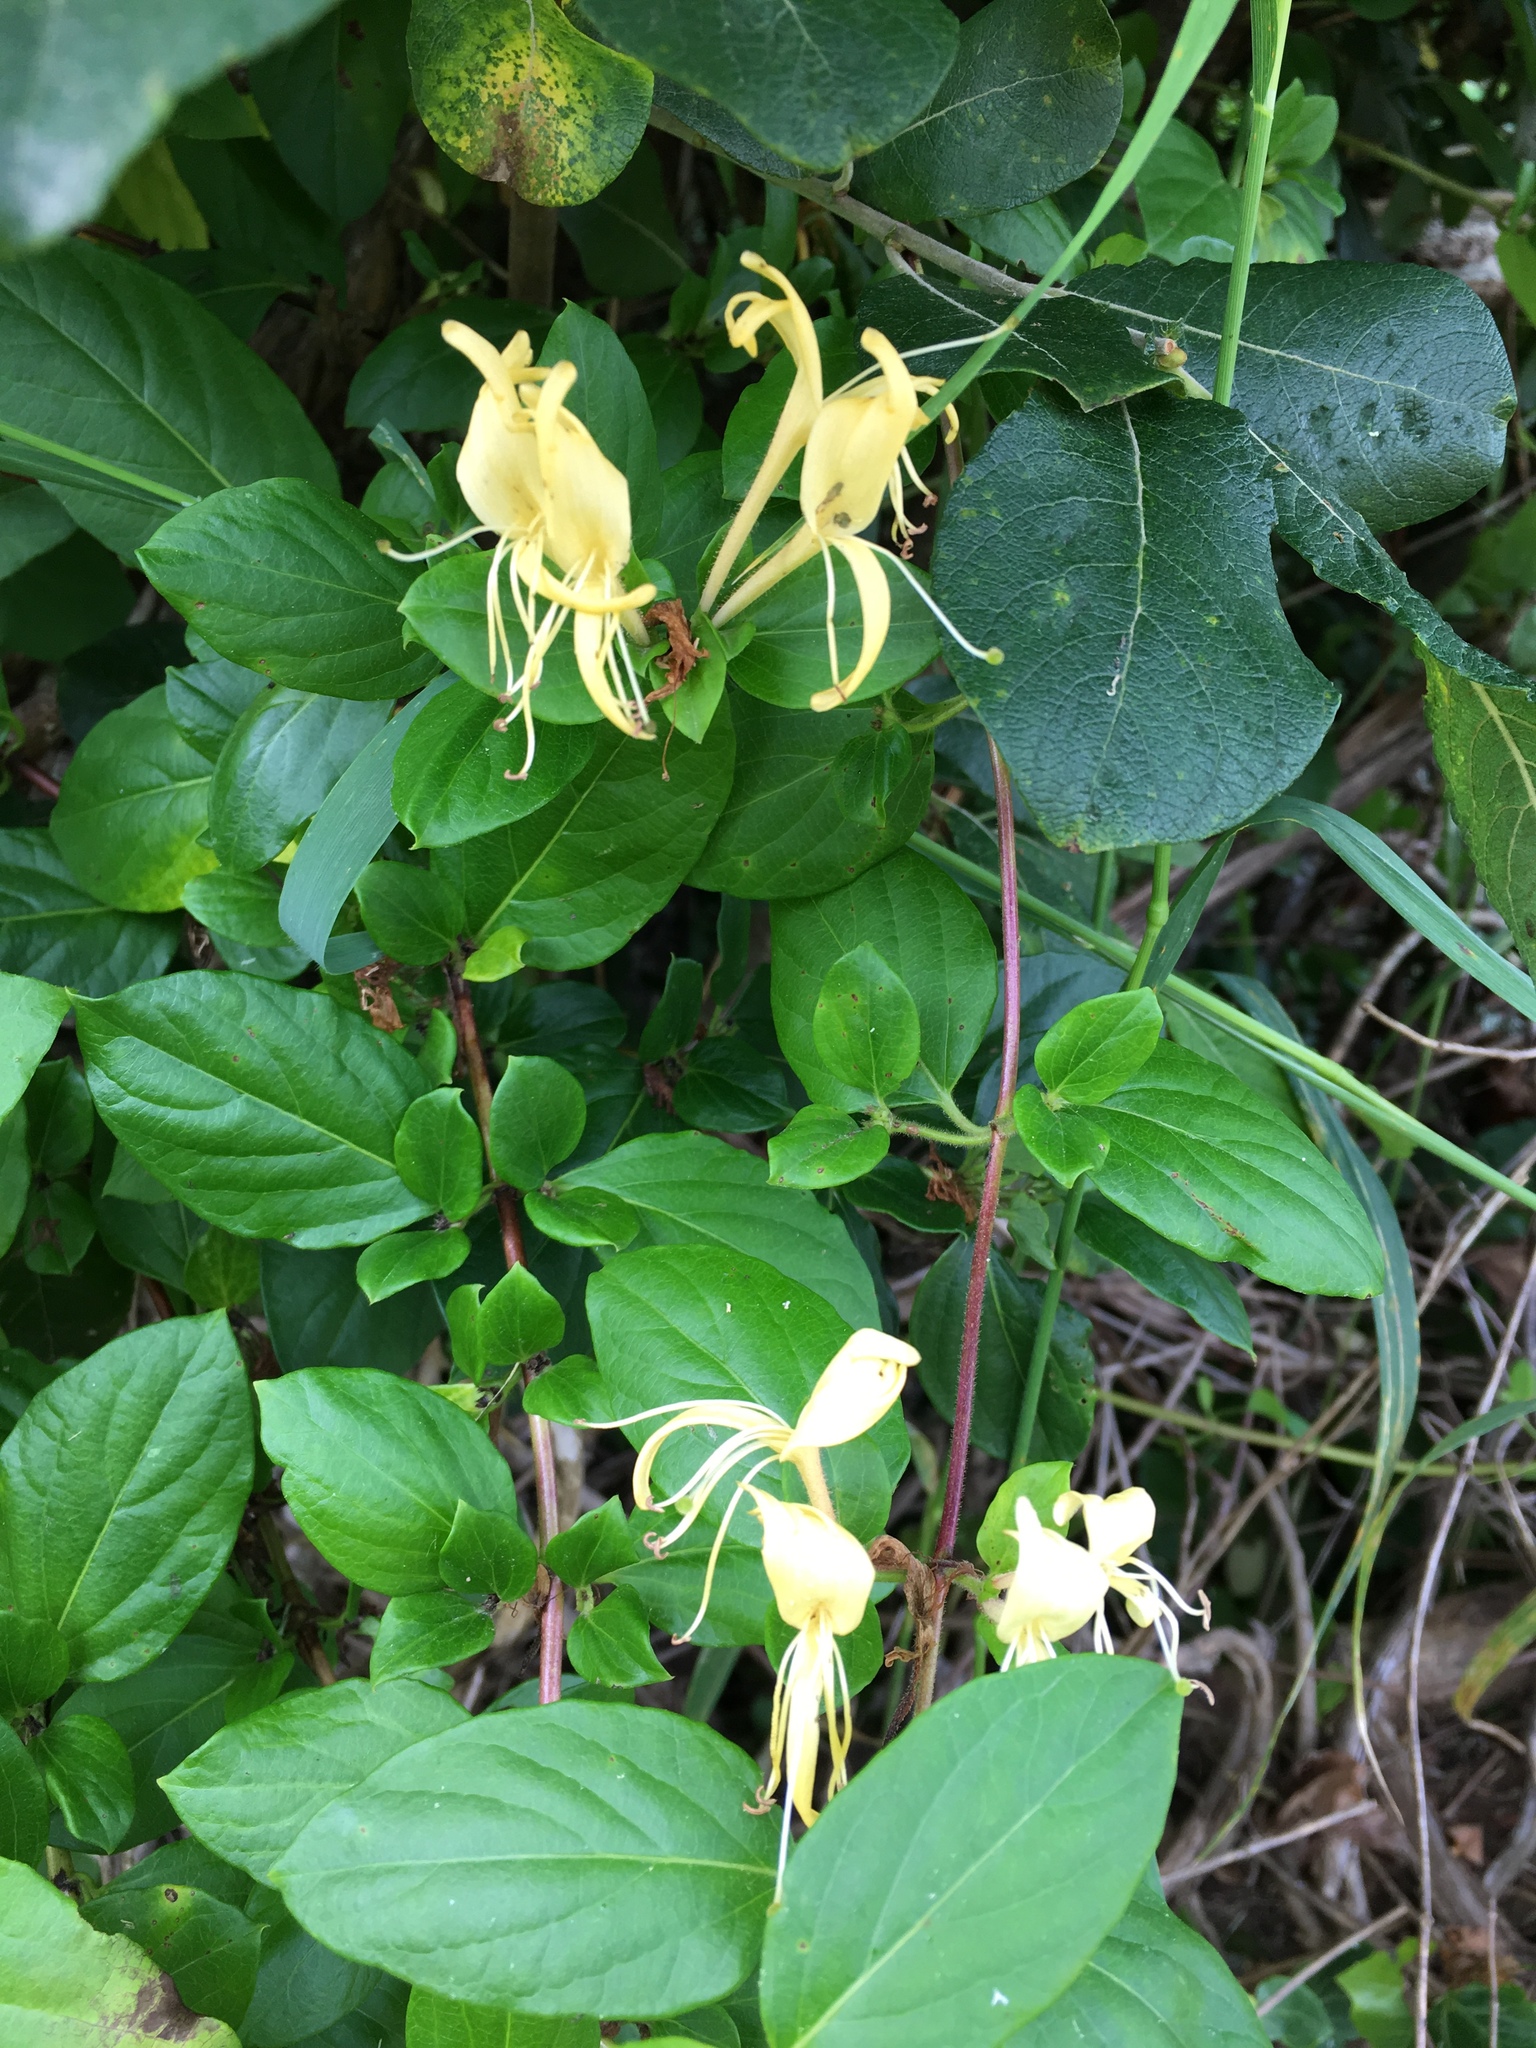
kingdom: Plantae
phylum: Tracheophyta
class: Magnoliopsida
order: Dipsacales
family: Caprifoliaceae
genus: Lonicera
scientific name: Lonicera japonica
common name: Japanese honeysuckle
